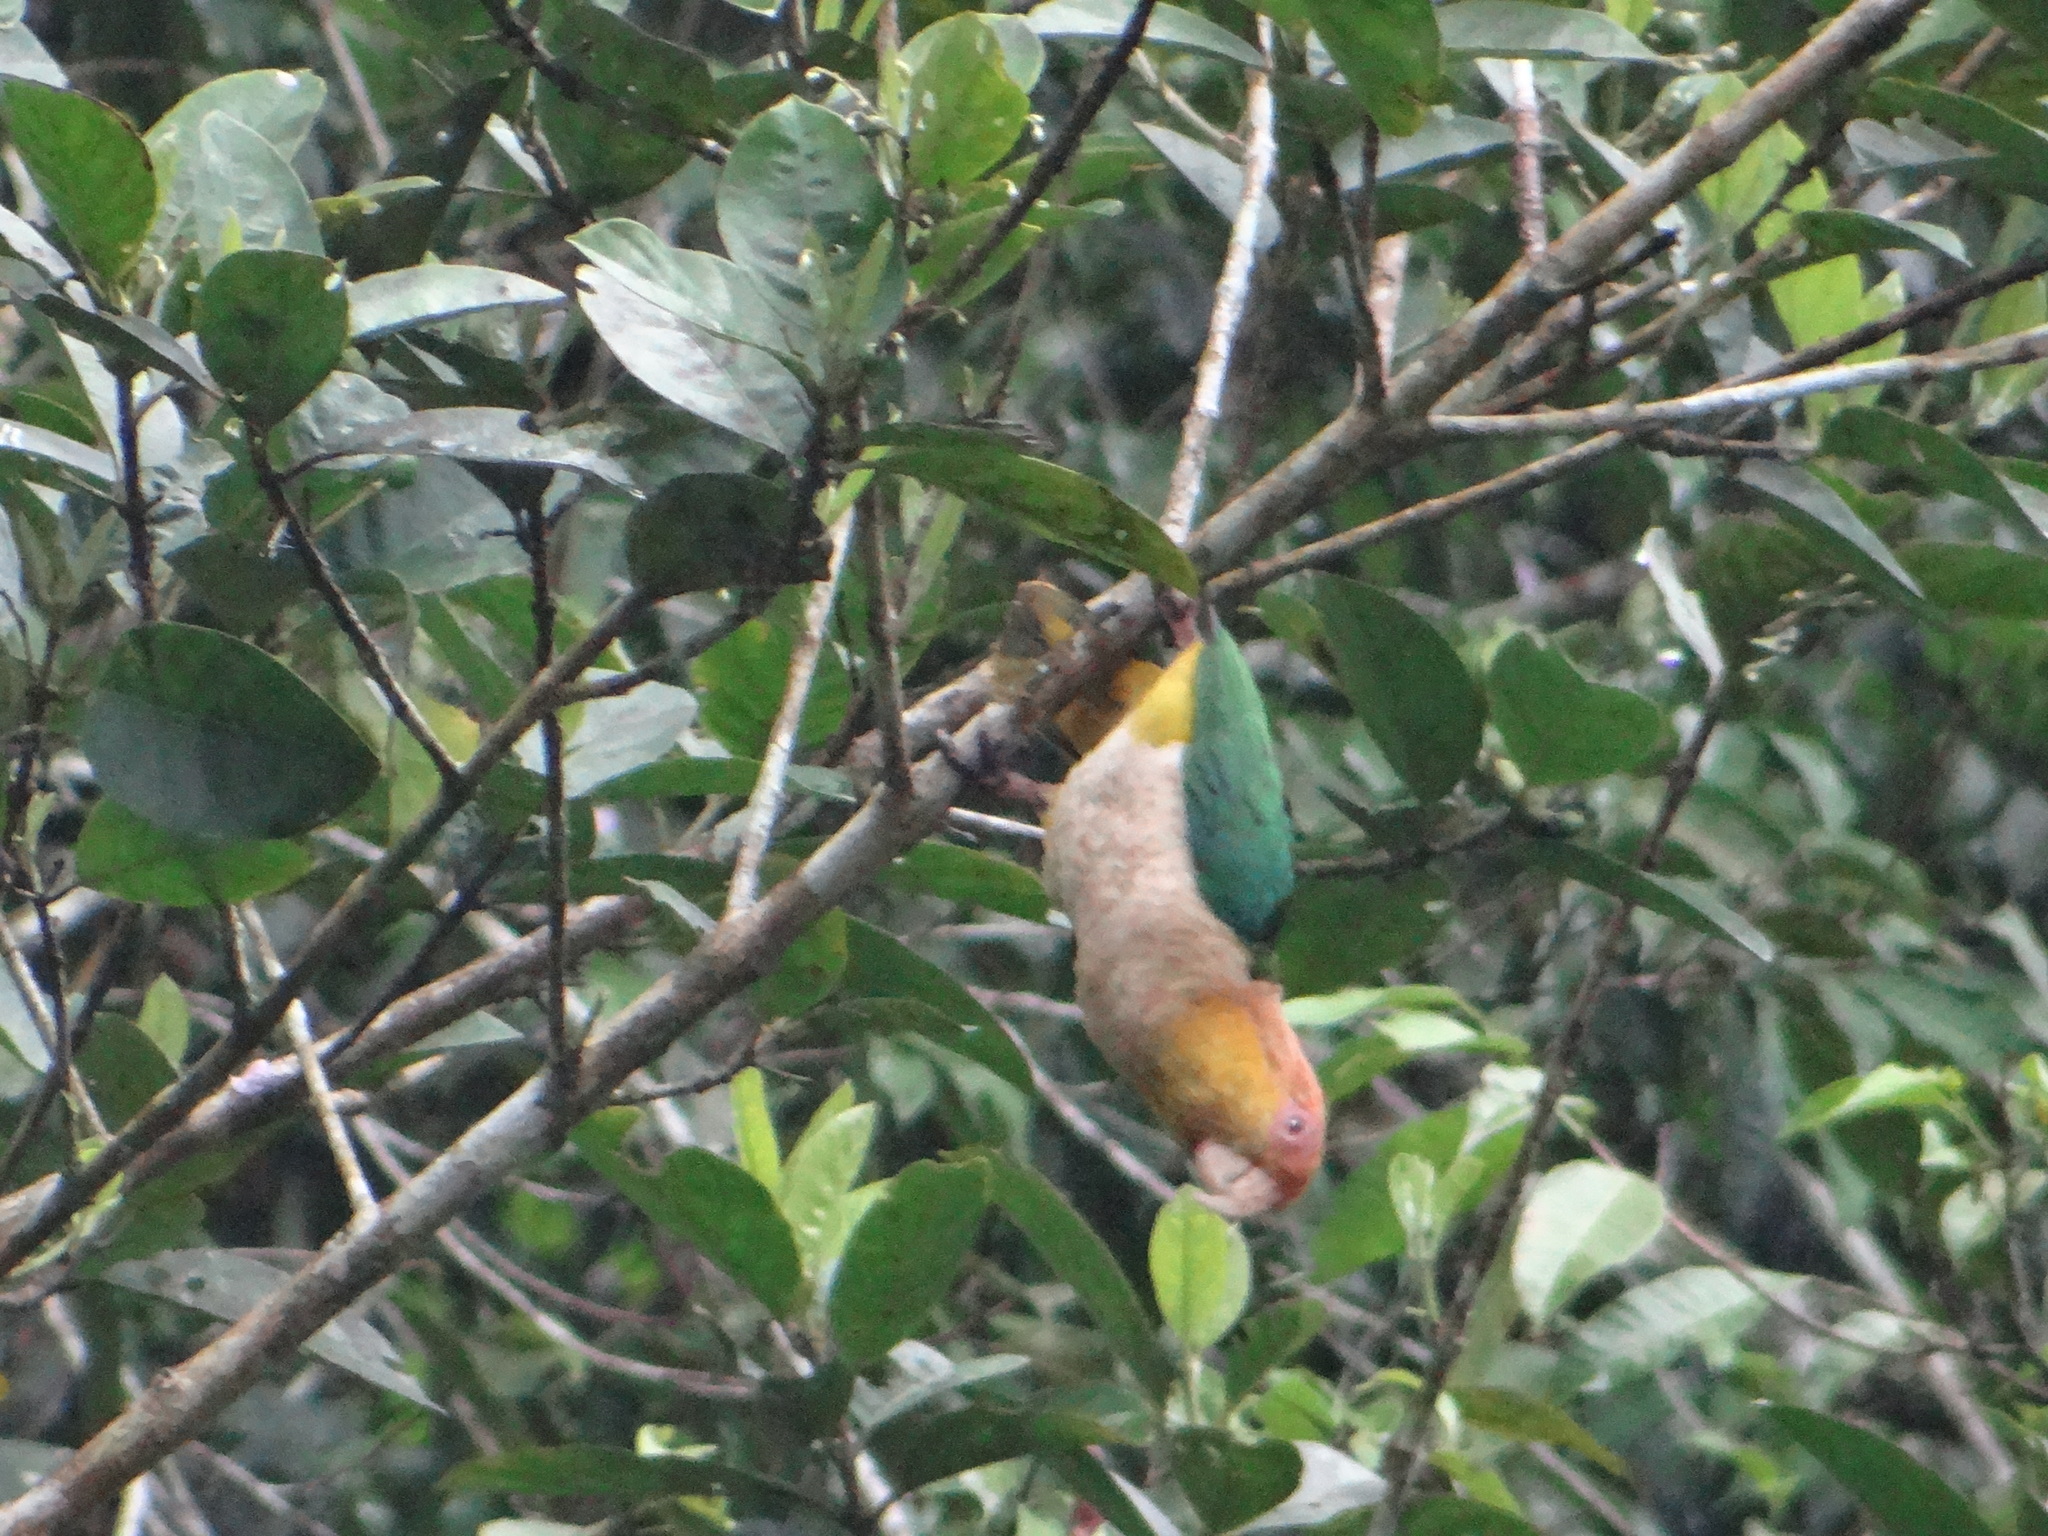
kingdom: Animalia
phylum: Chordata
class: Aves
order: Psittaciformes
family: Psittacidae
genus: Pionites
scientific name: Pionites leucogaster
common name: White-bellied parrot
